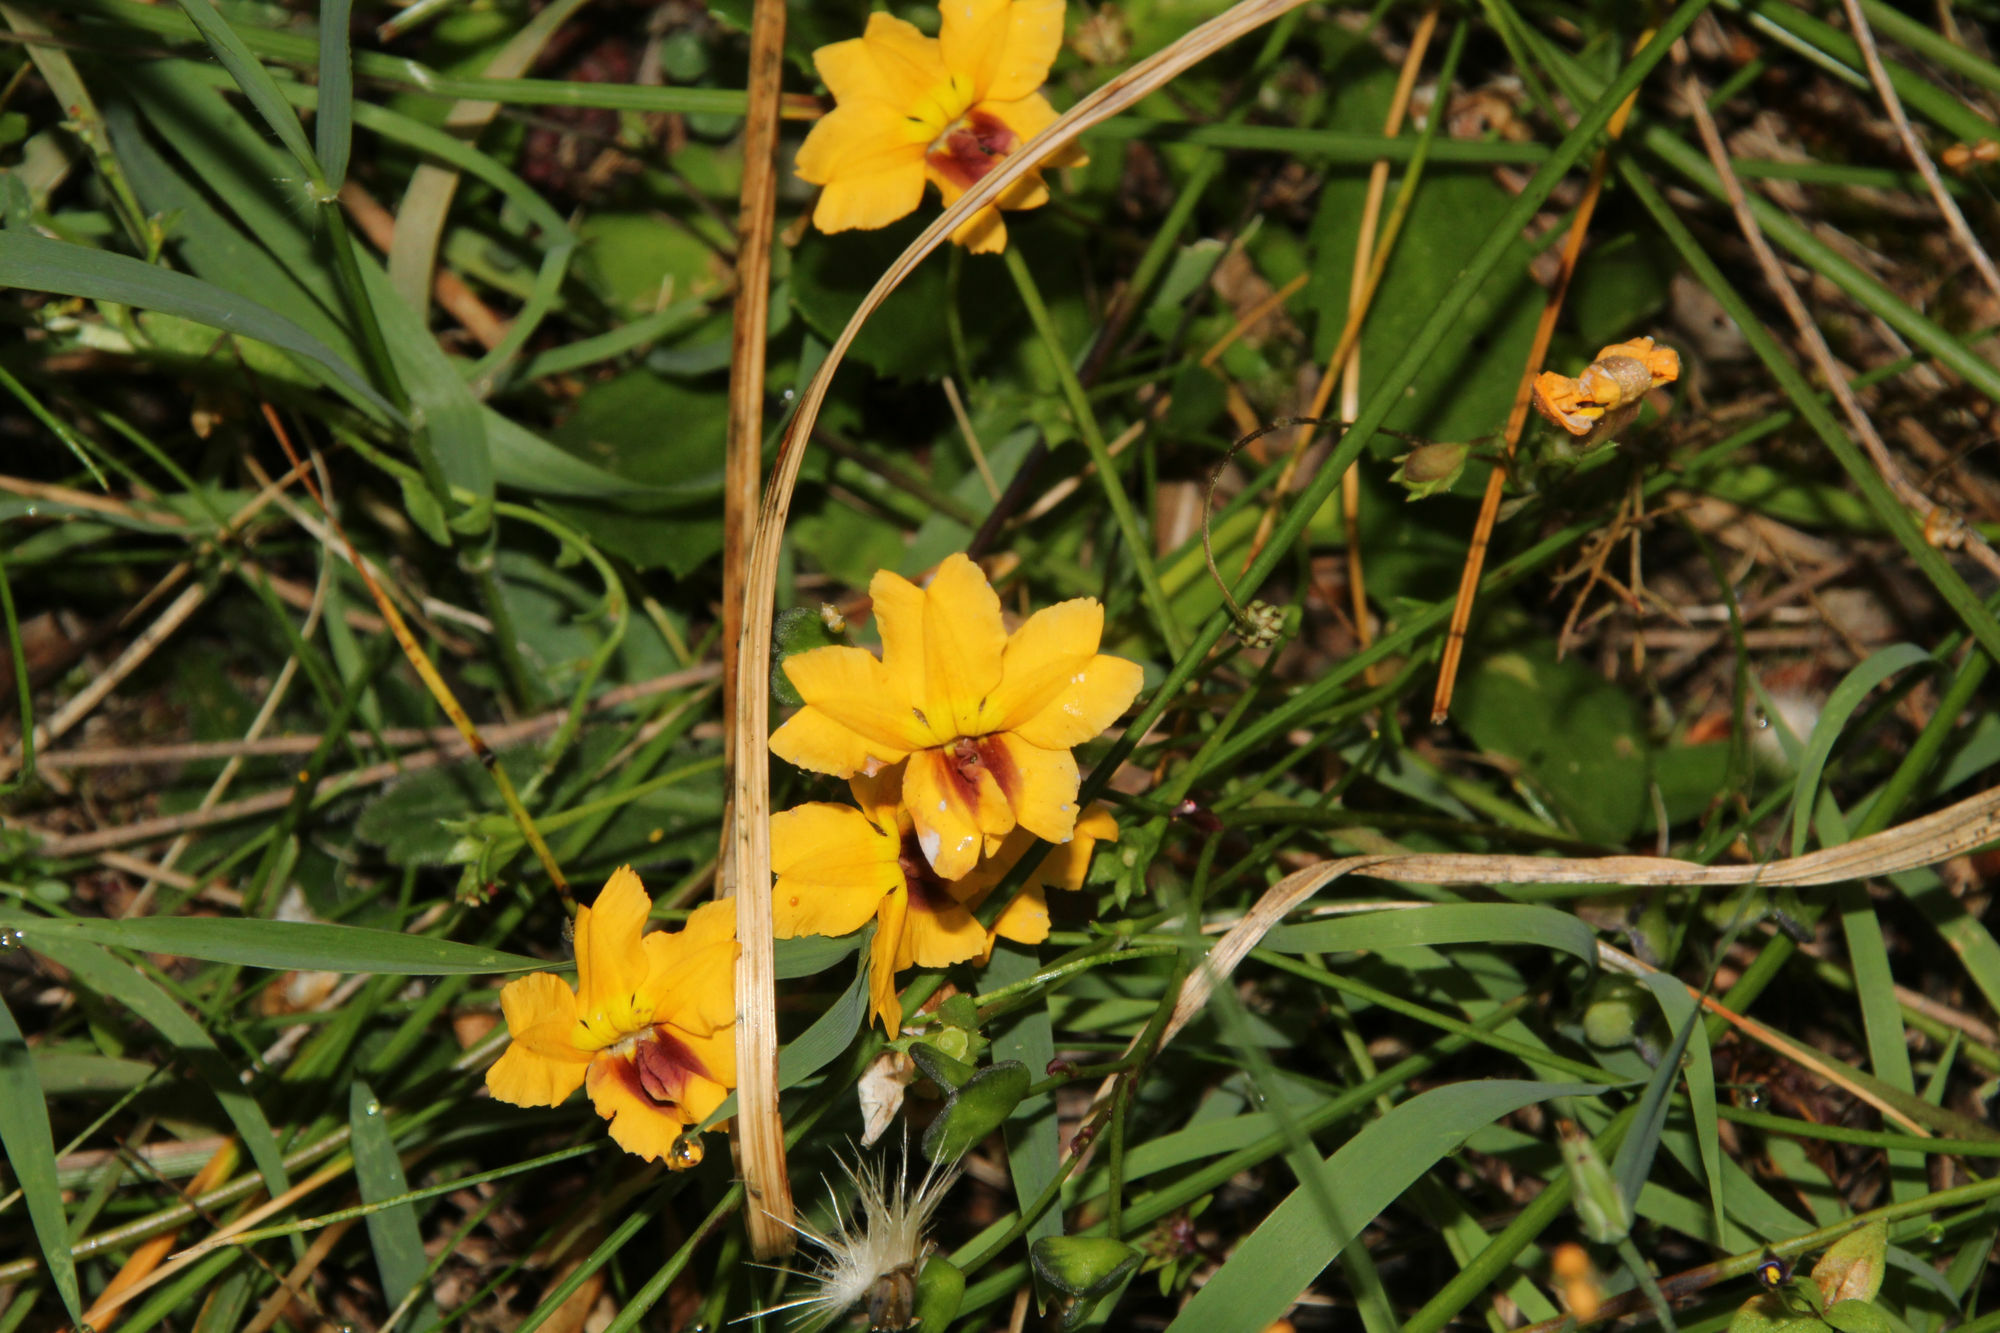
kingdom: Plantae
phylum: Tracheophyta
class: Magnoliopsida
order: Asterales
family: Goodeniaceae
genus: Goodenia
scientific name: Goodenia trinervis
